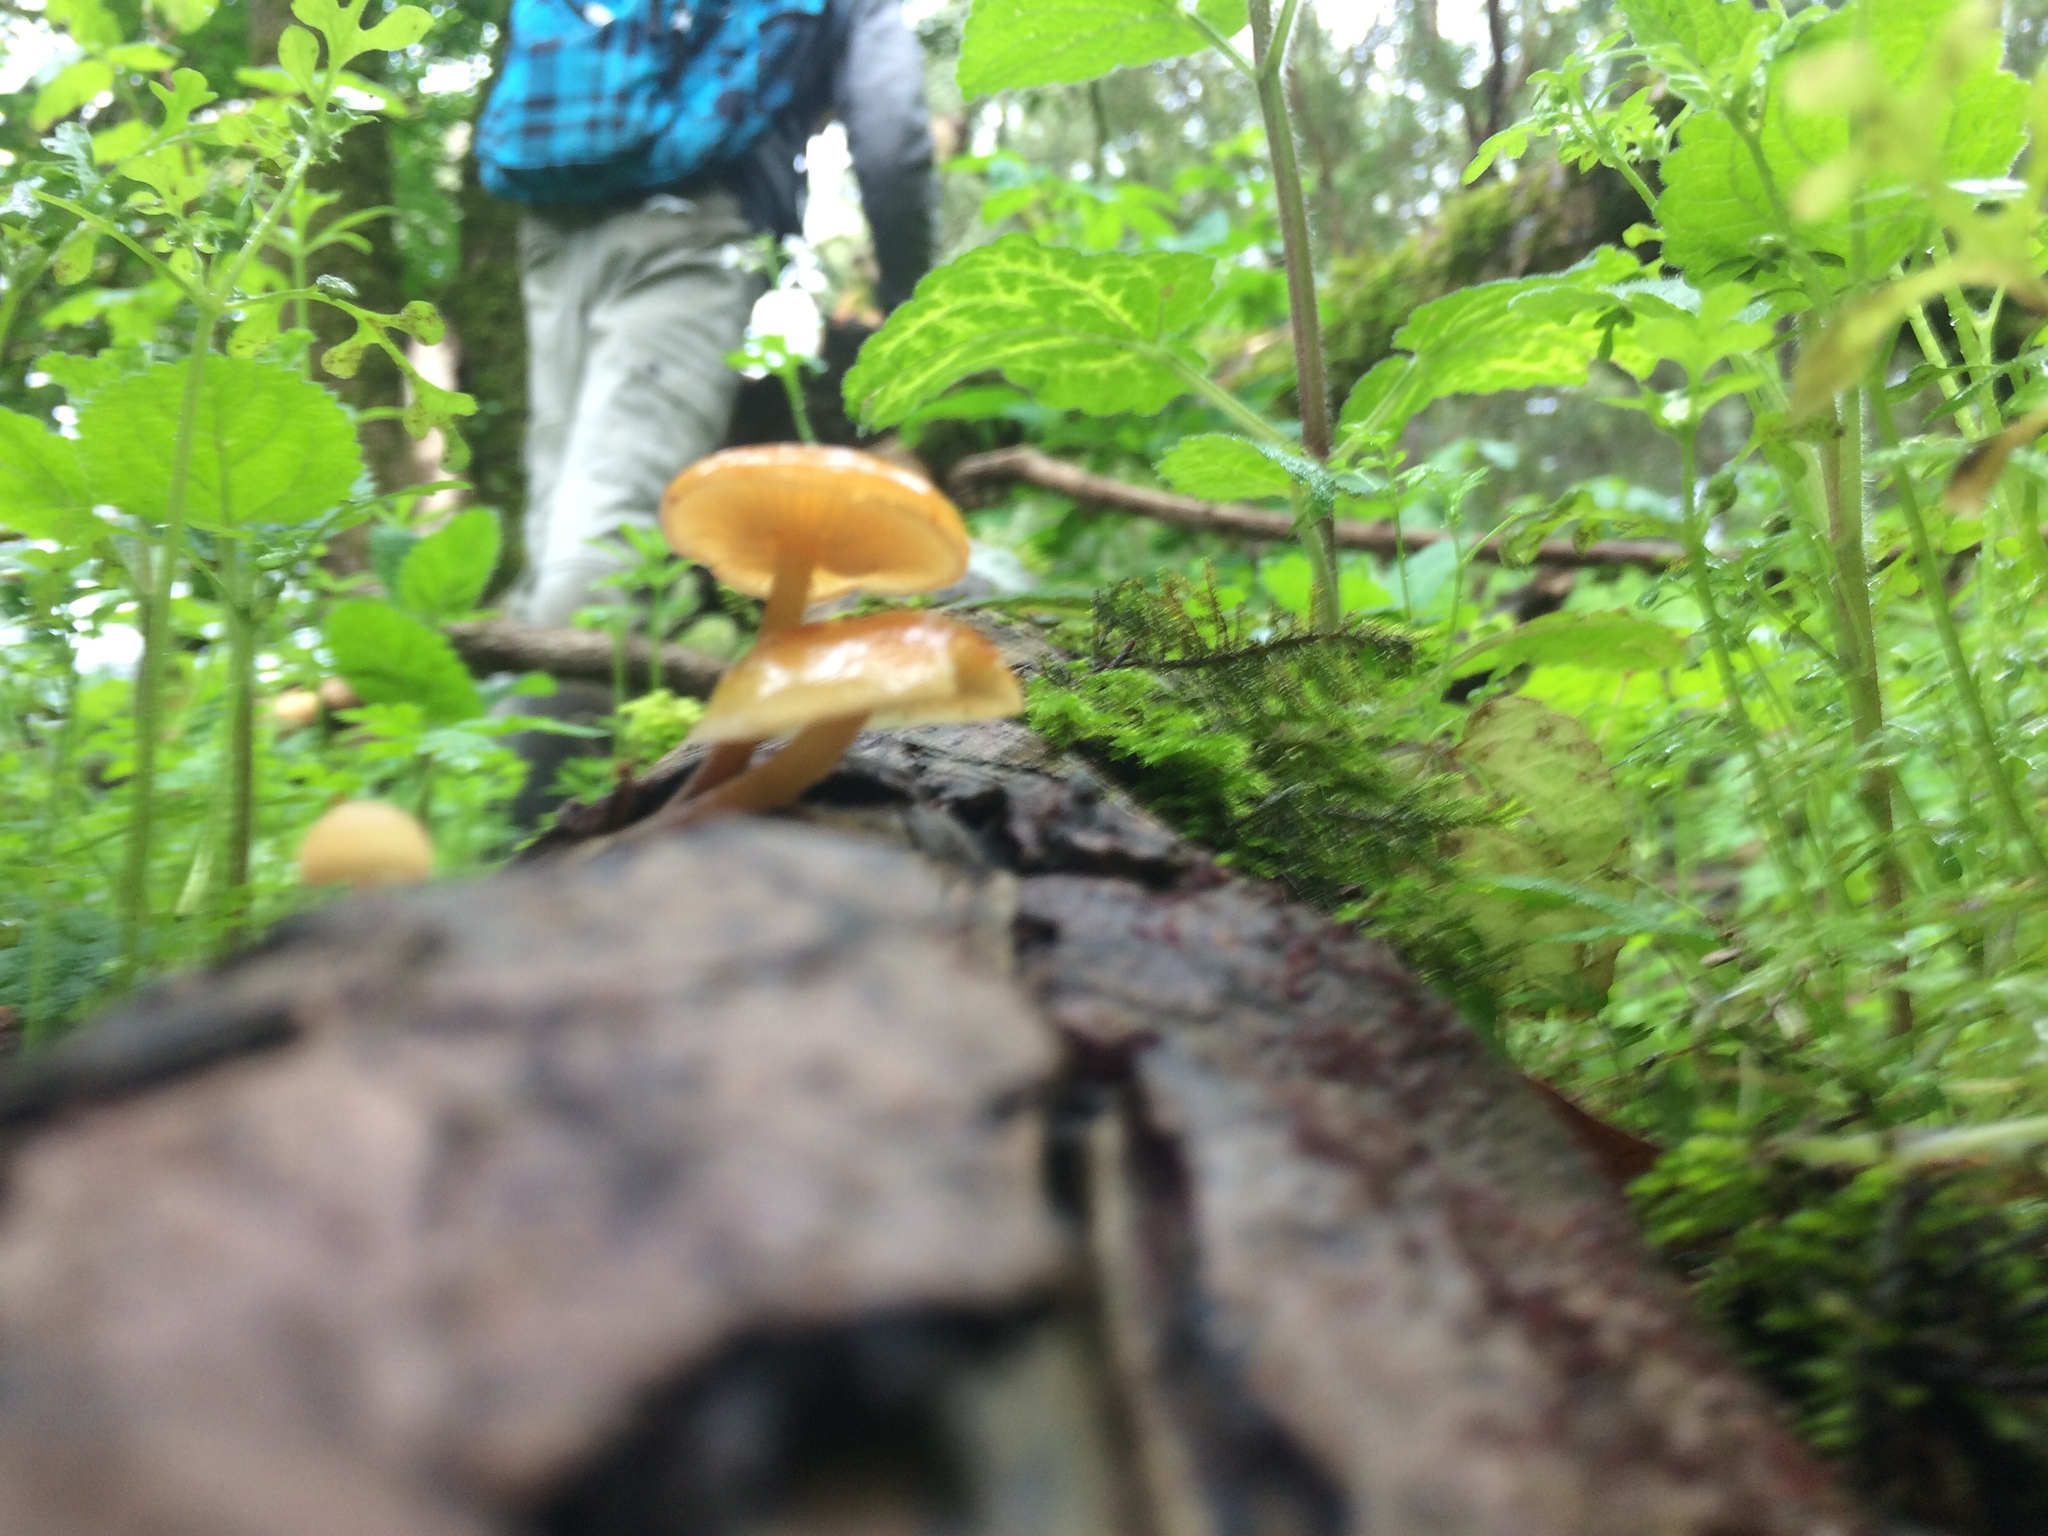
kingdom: Fungi
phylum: Basidiomycota
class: Agaricomycetes
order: Agaricales
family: Strophariaceae
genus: Hypholoma
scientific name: Hypholoma capnoides
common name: Conifer tuft
